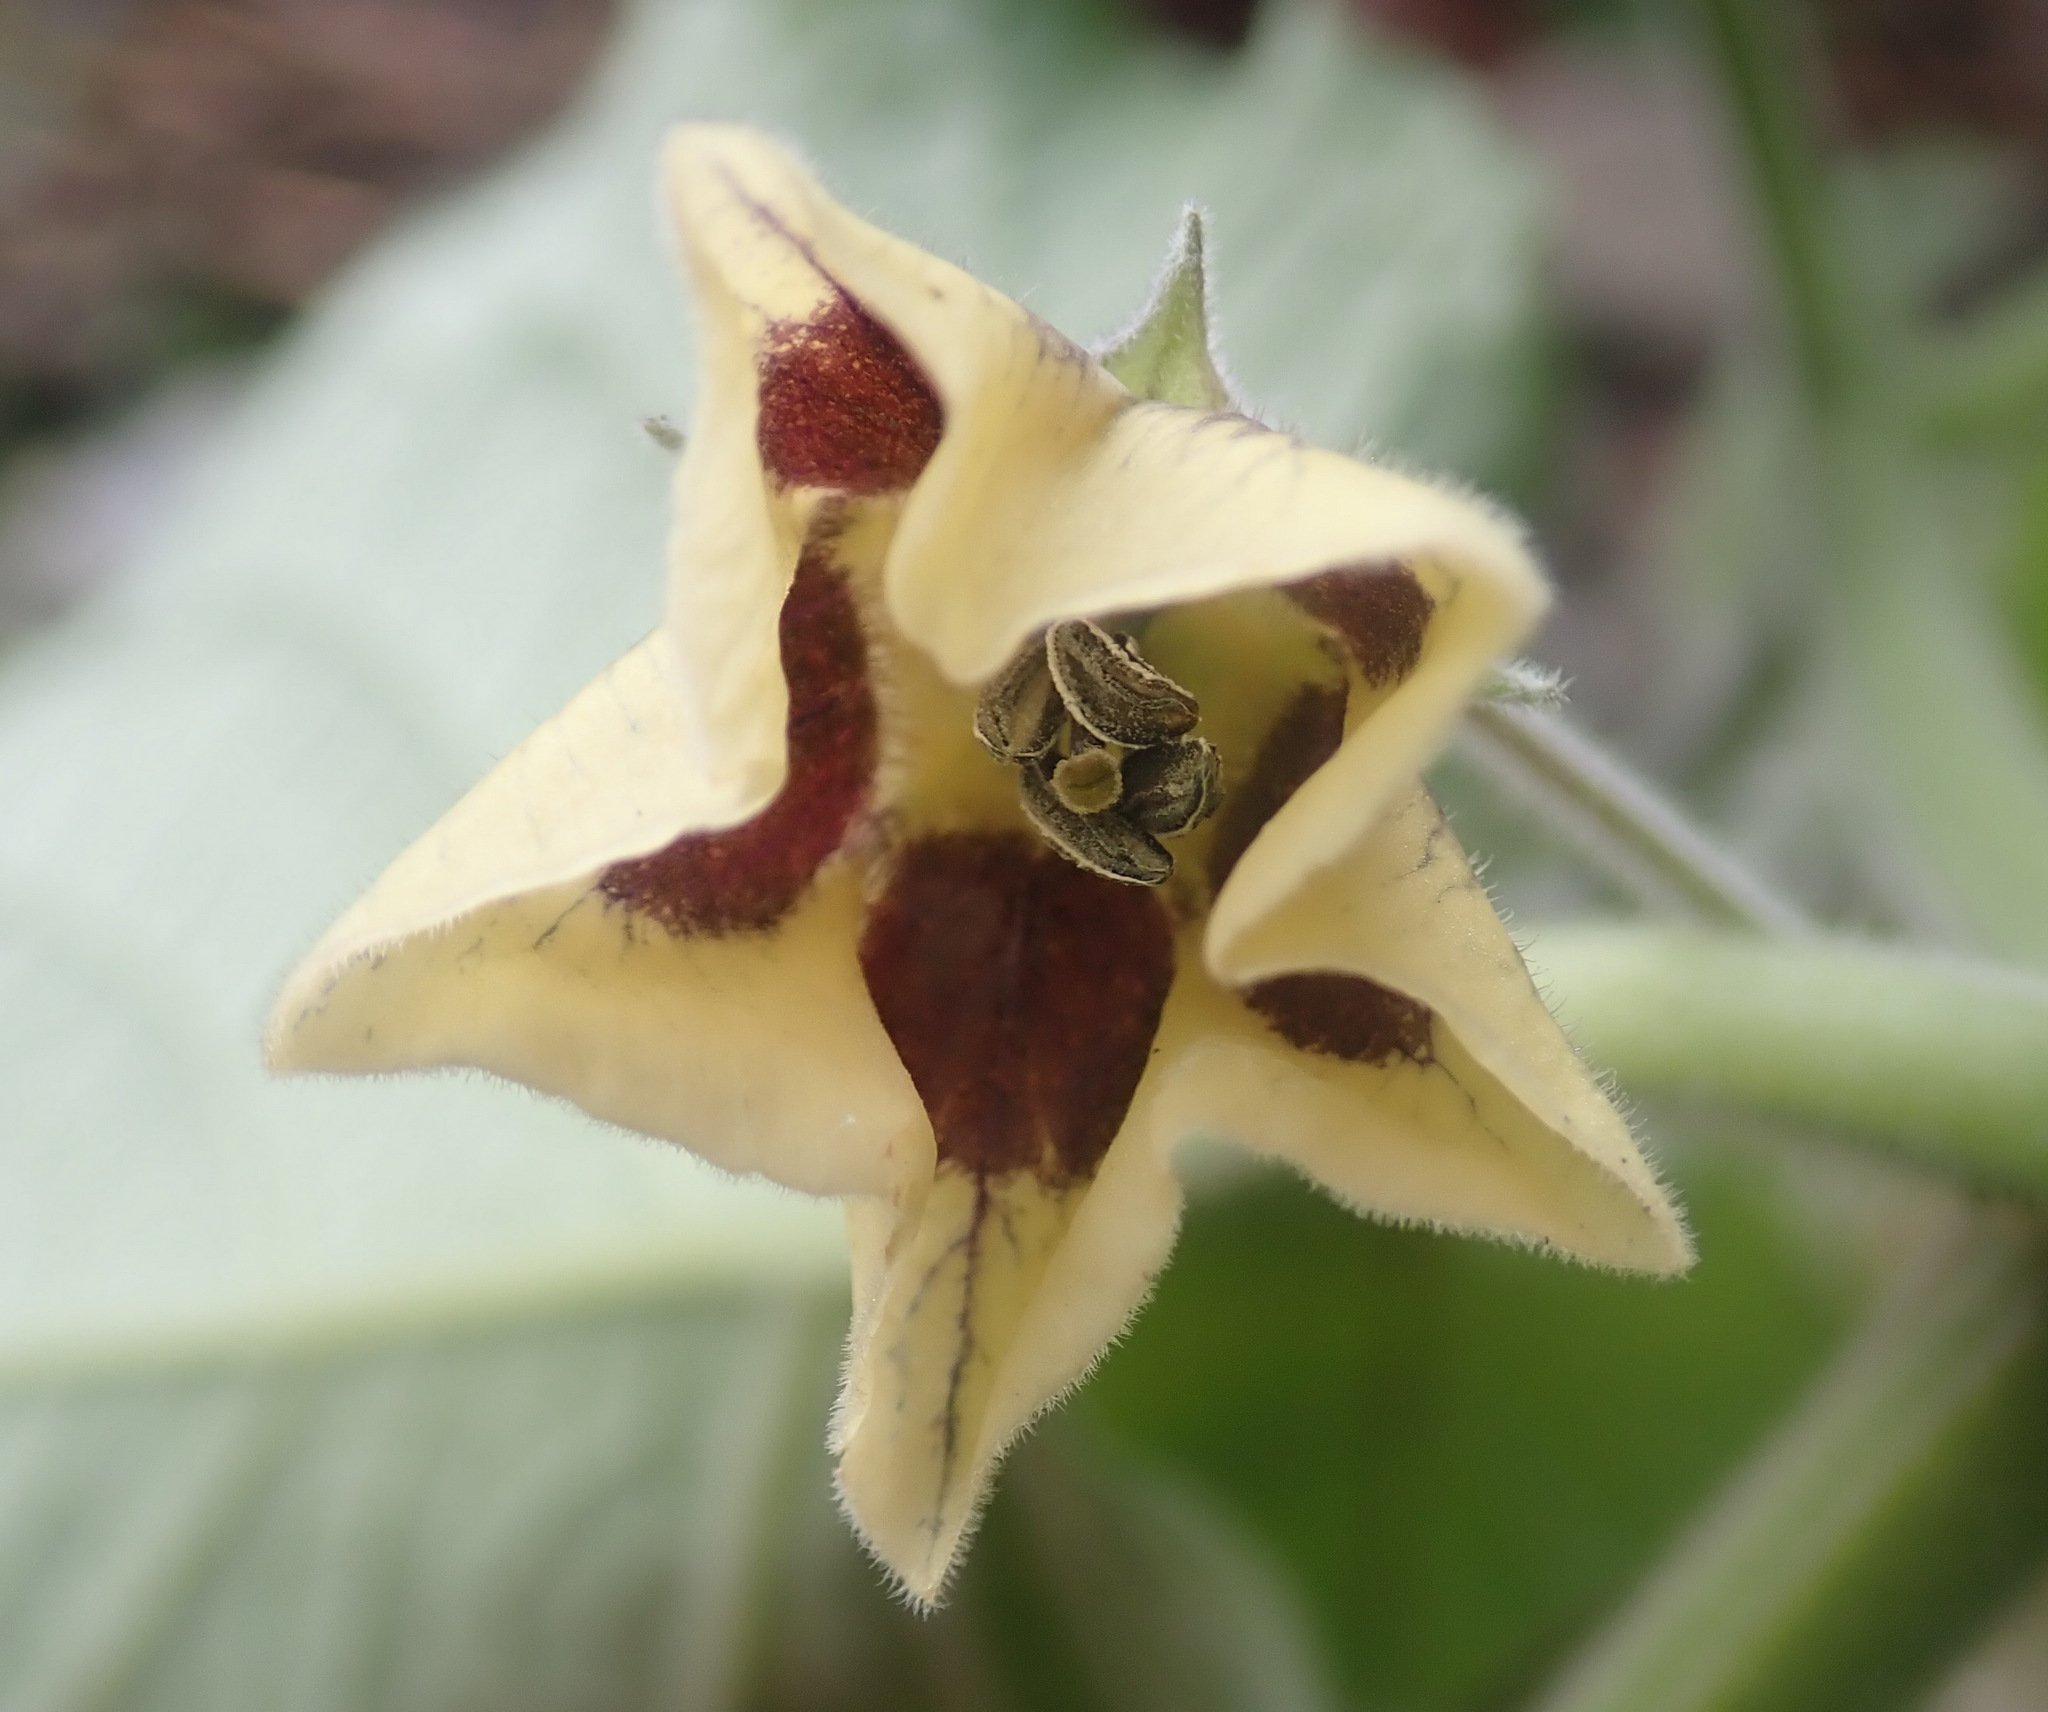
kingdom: Plantae
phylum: Tracheophyta
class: Magnoliopsida
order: Solanales
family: Solanaceae
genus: Physalis
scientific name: Physalis peruviana
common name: Cape-gooseberry
